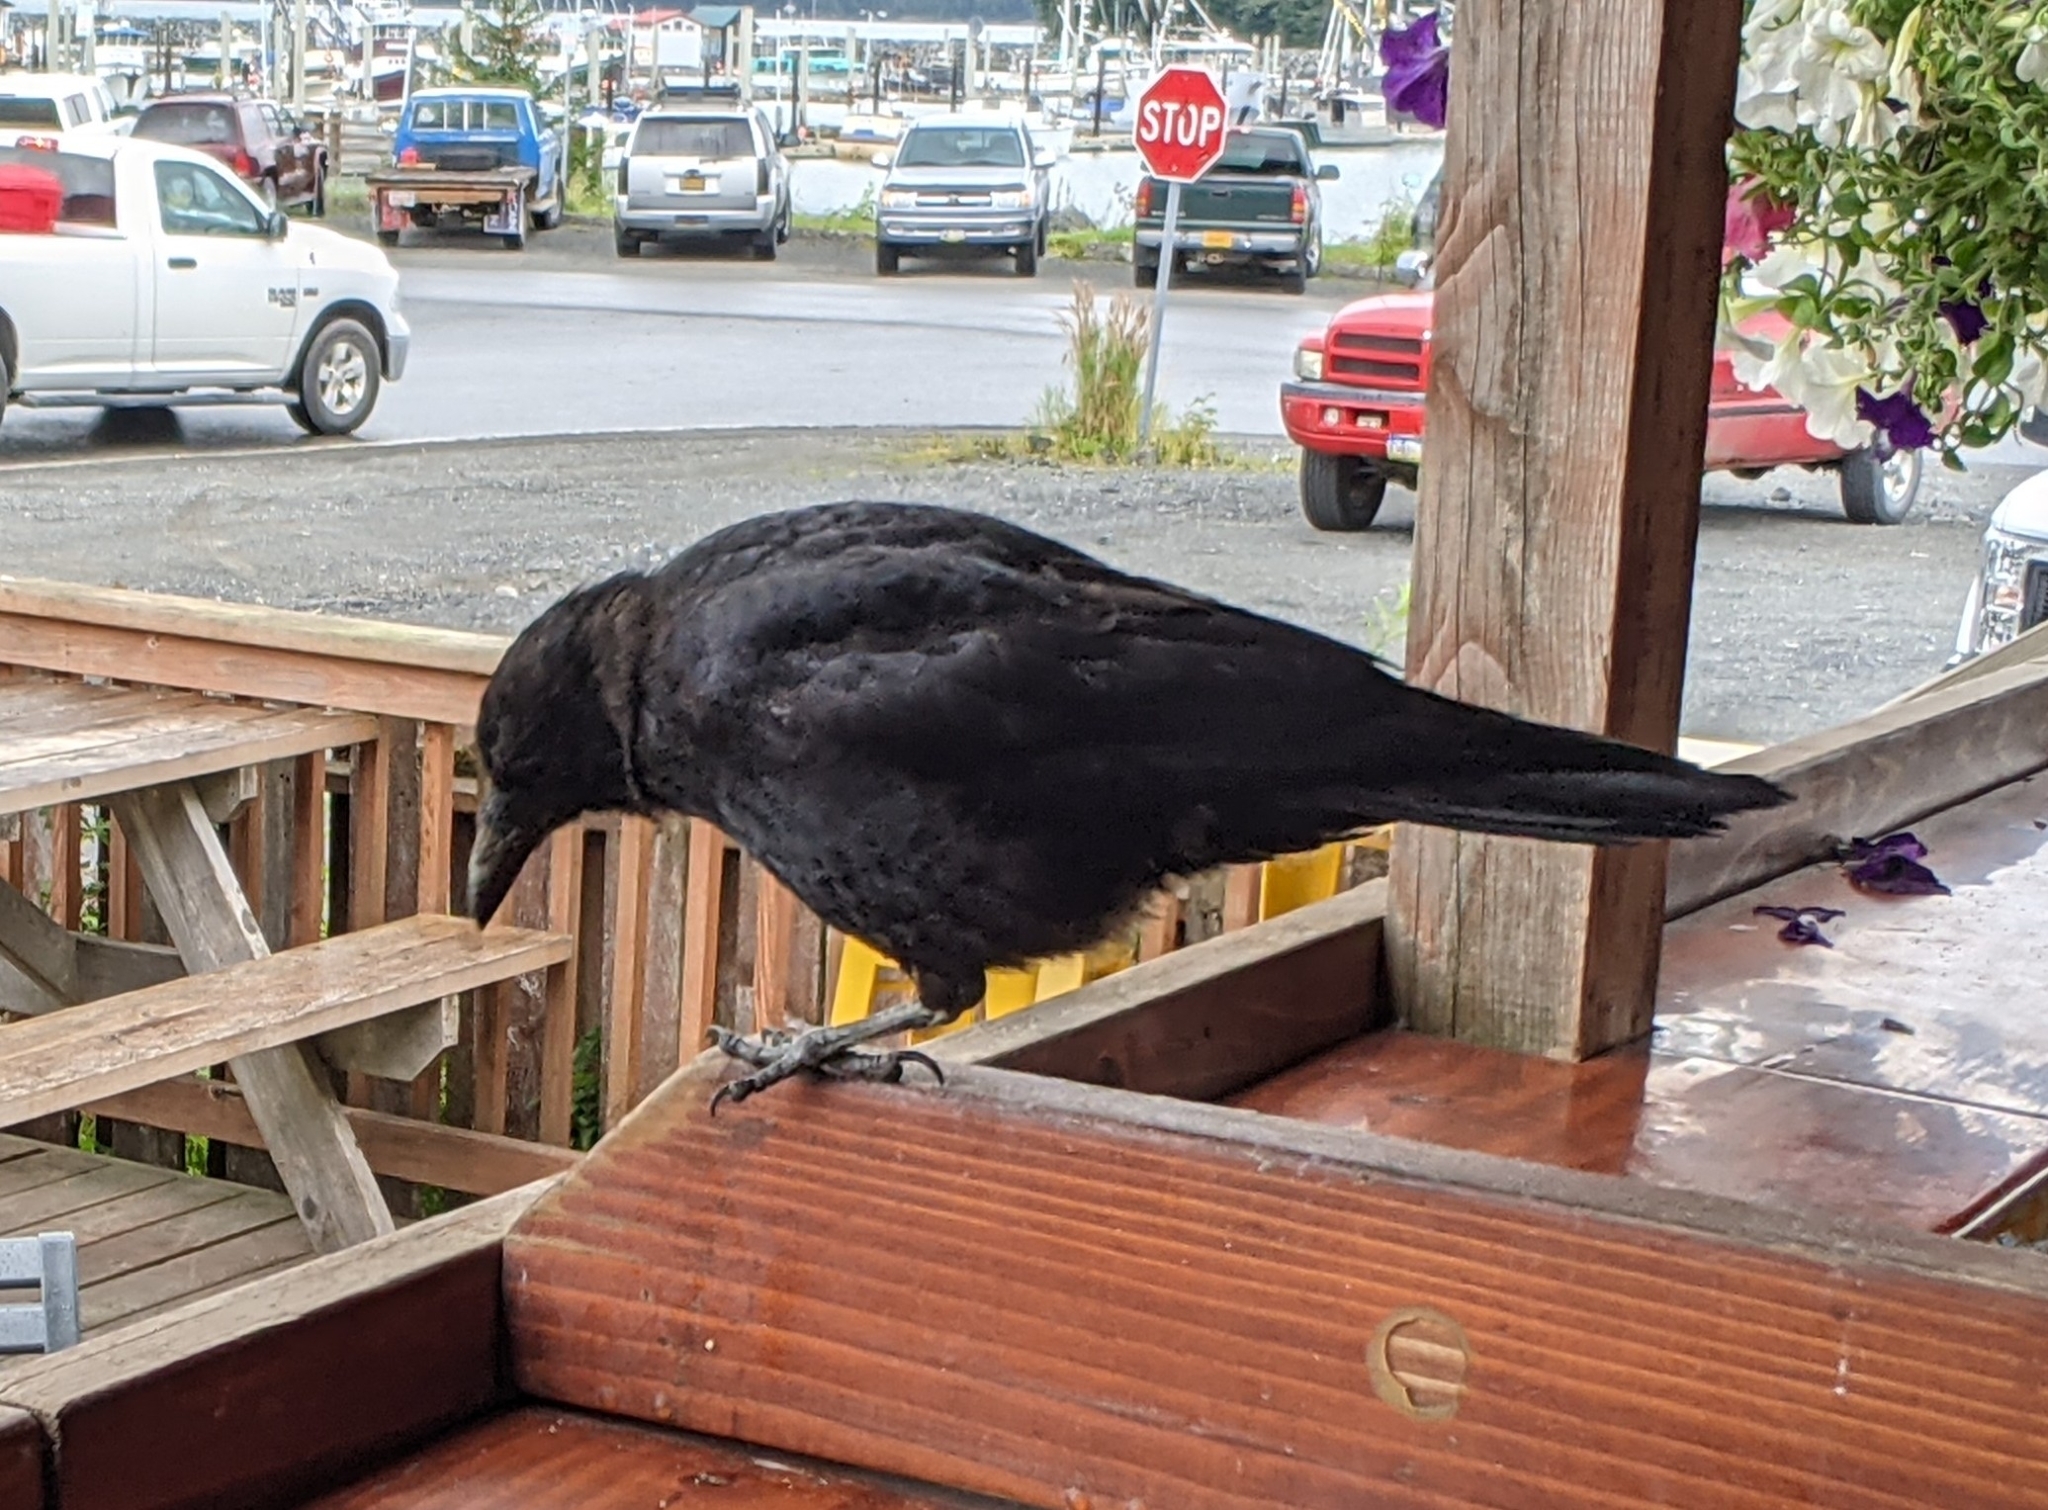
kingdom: Animalia
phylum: Chordata
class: Aves
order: Passeriformes
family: Corvidae
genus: Corvus
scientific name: Corvus brachyrhynchos
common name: American crow
